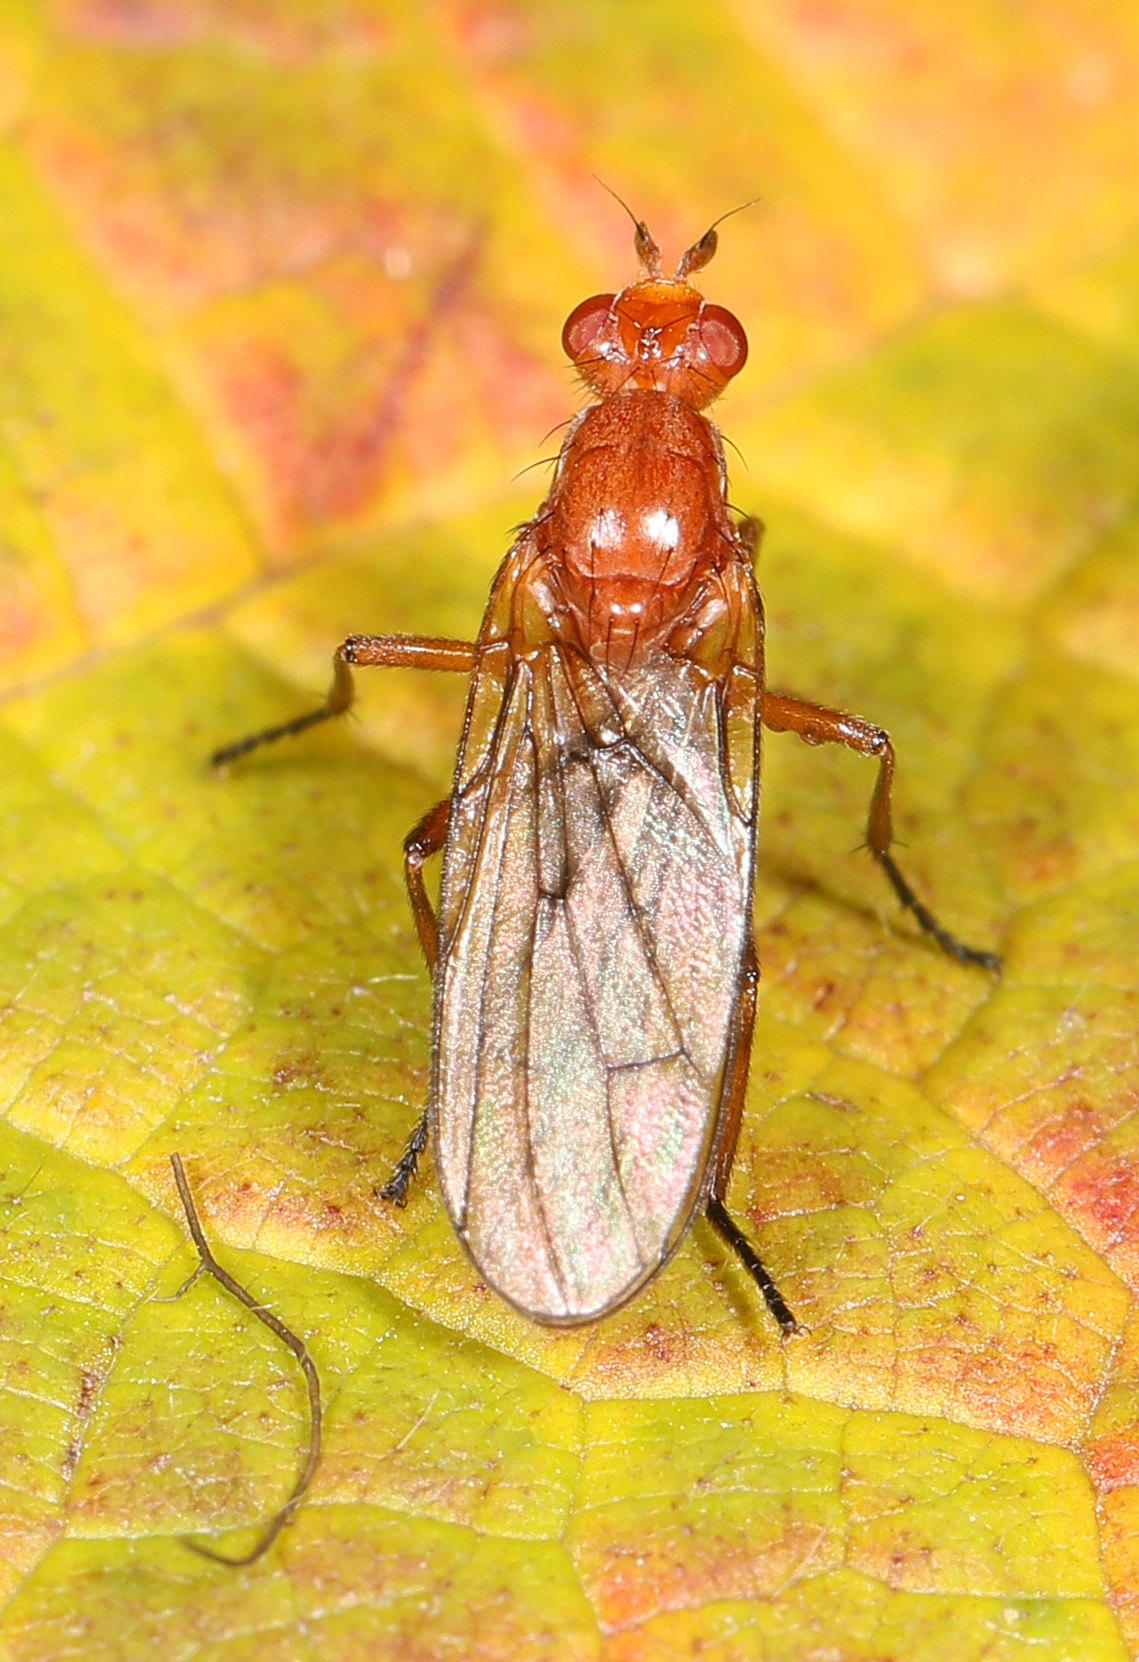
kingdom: Animalia
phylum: Arthropoda
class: Insecta
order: Diptera
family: Dryomyzidae
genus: Paradryomyza
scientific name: Paradryomyza setosa
